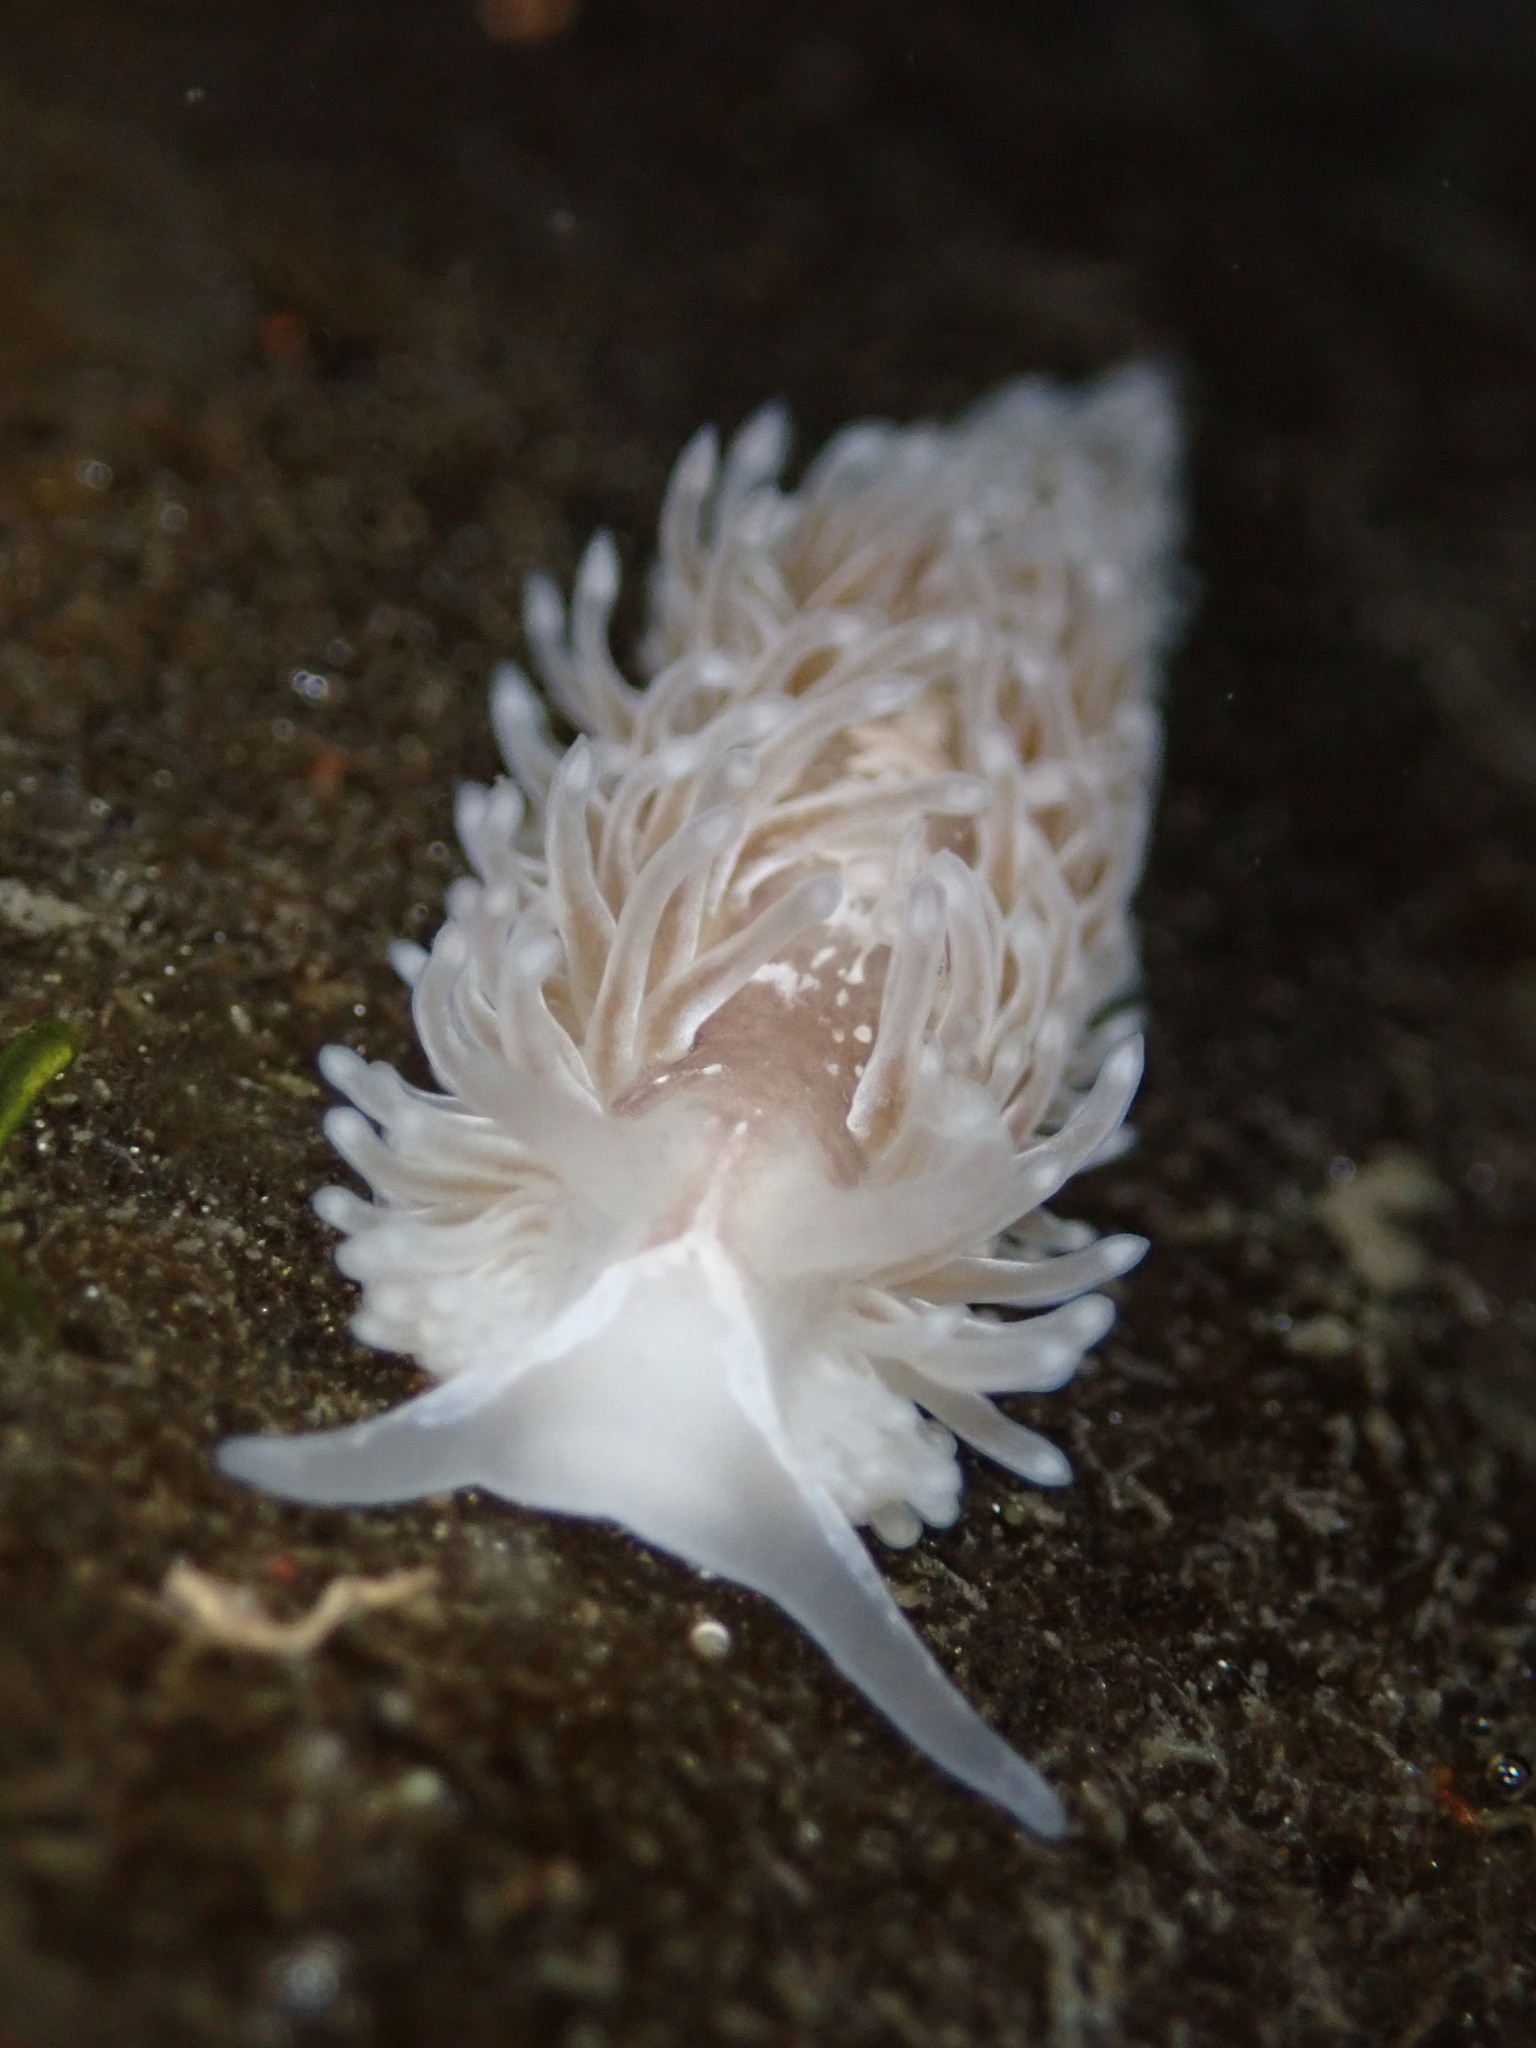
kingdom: Animalia
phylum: Mollusca
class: Gastropoda
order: Nudibranchia
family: Aeolidiidae
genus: Aeolidia
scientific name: Aeolidia loui
